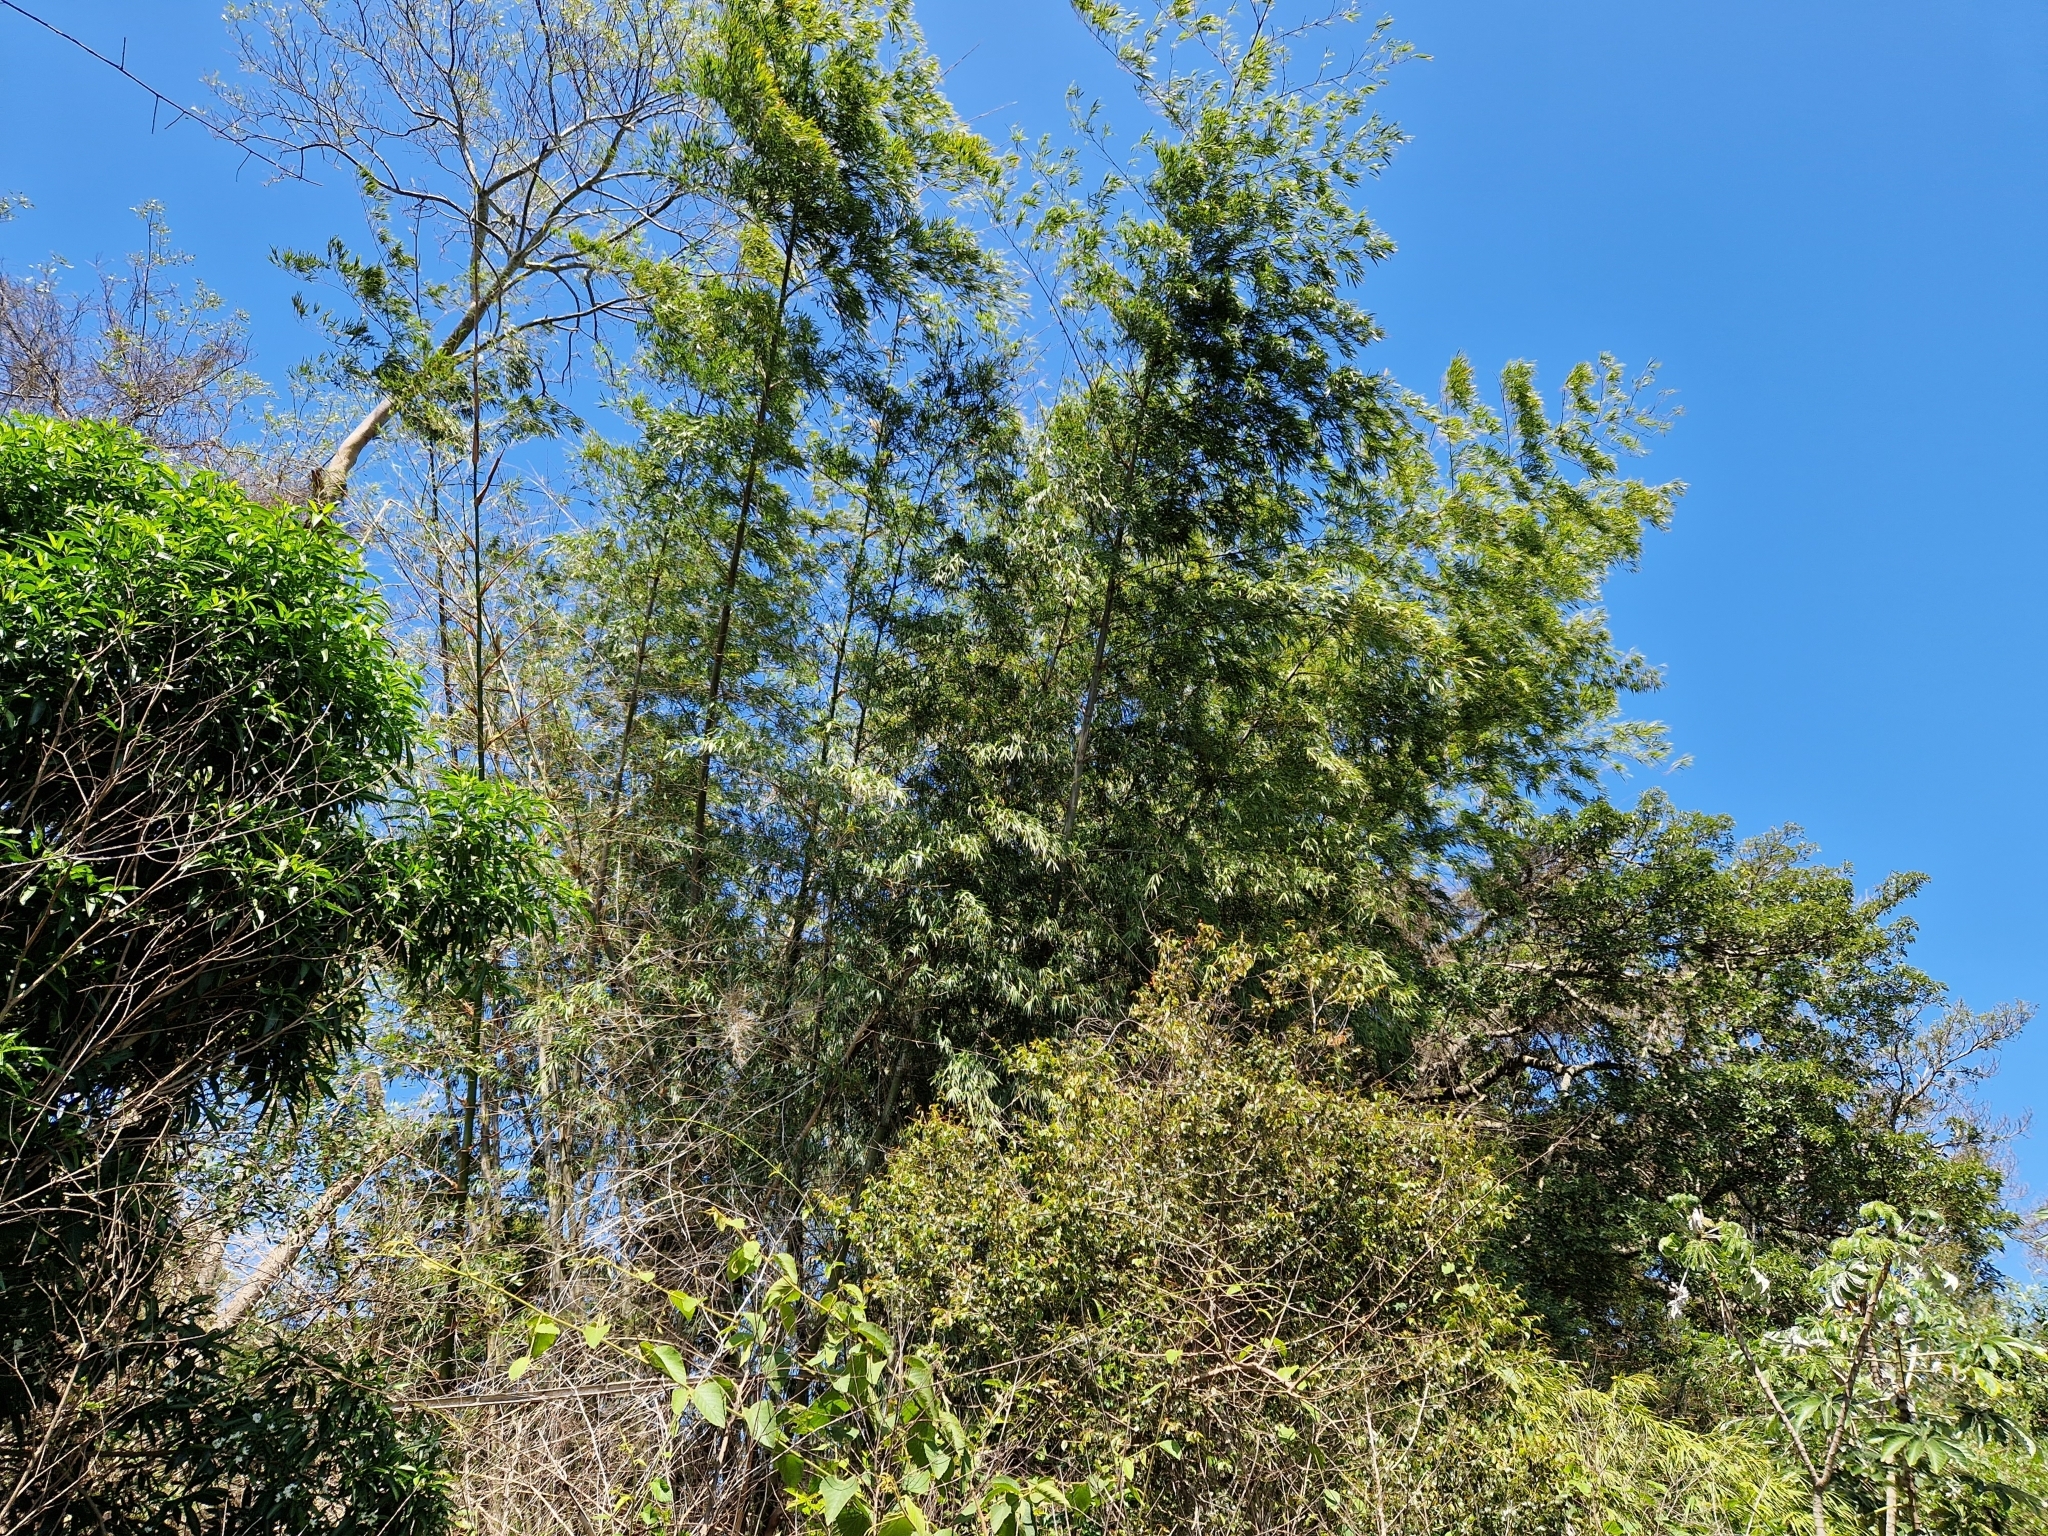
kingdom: Plantae
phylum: Tracheophyta
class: Liliopsida
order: Poales
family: Poaceae
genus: Guadua
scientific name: Guadua paraguayana
